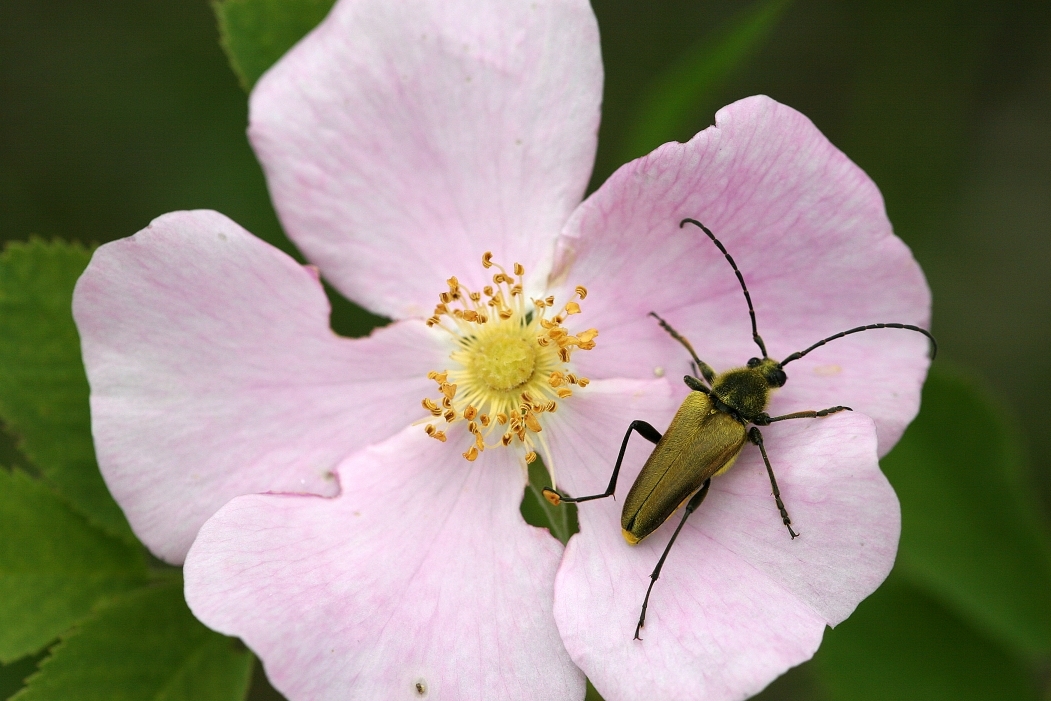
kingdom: Animalia
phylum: Arthropoda
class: Insecta
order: Coleoptera
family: Cerambycidae
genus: Cosmosalia
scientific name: Cosmosalia chrysocoma
